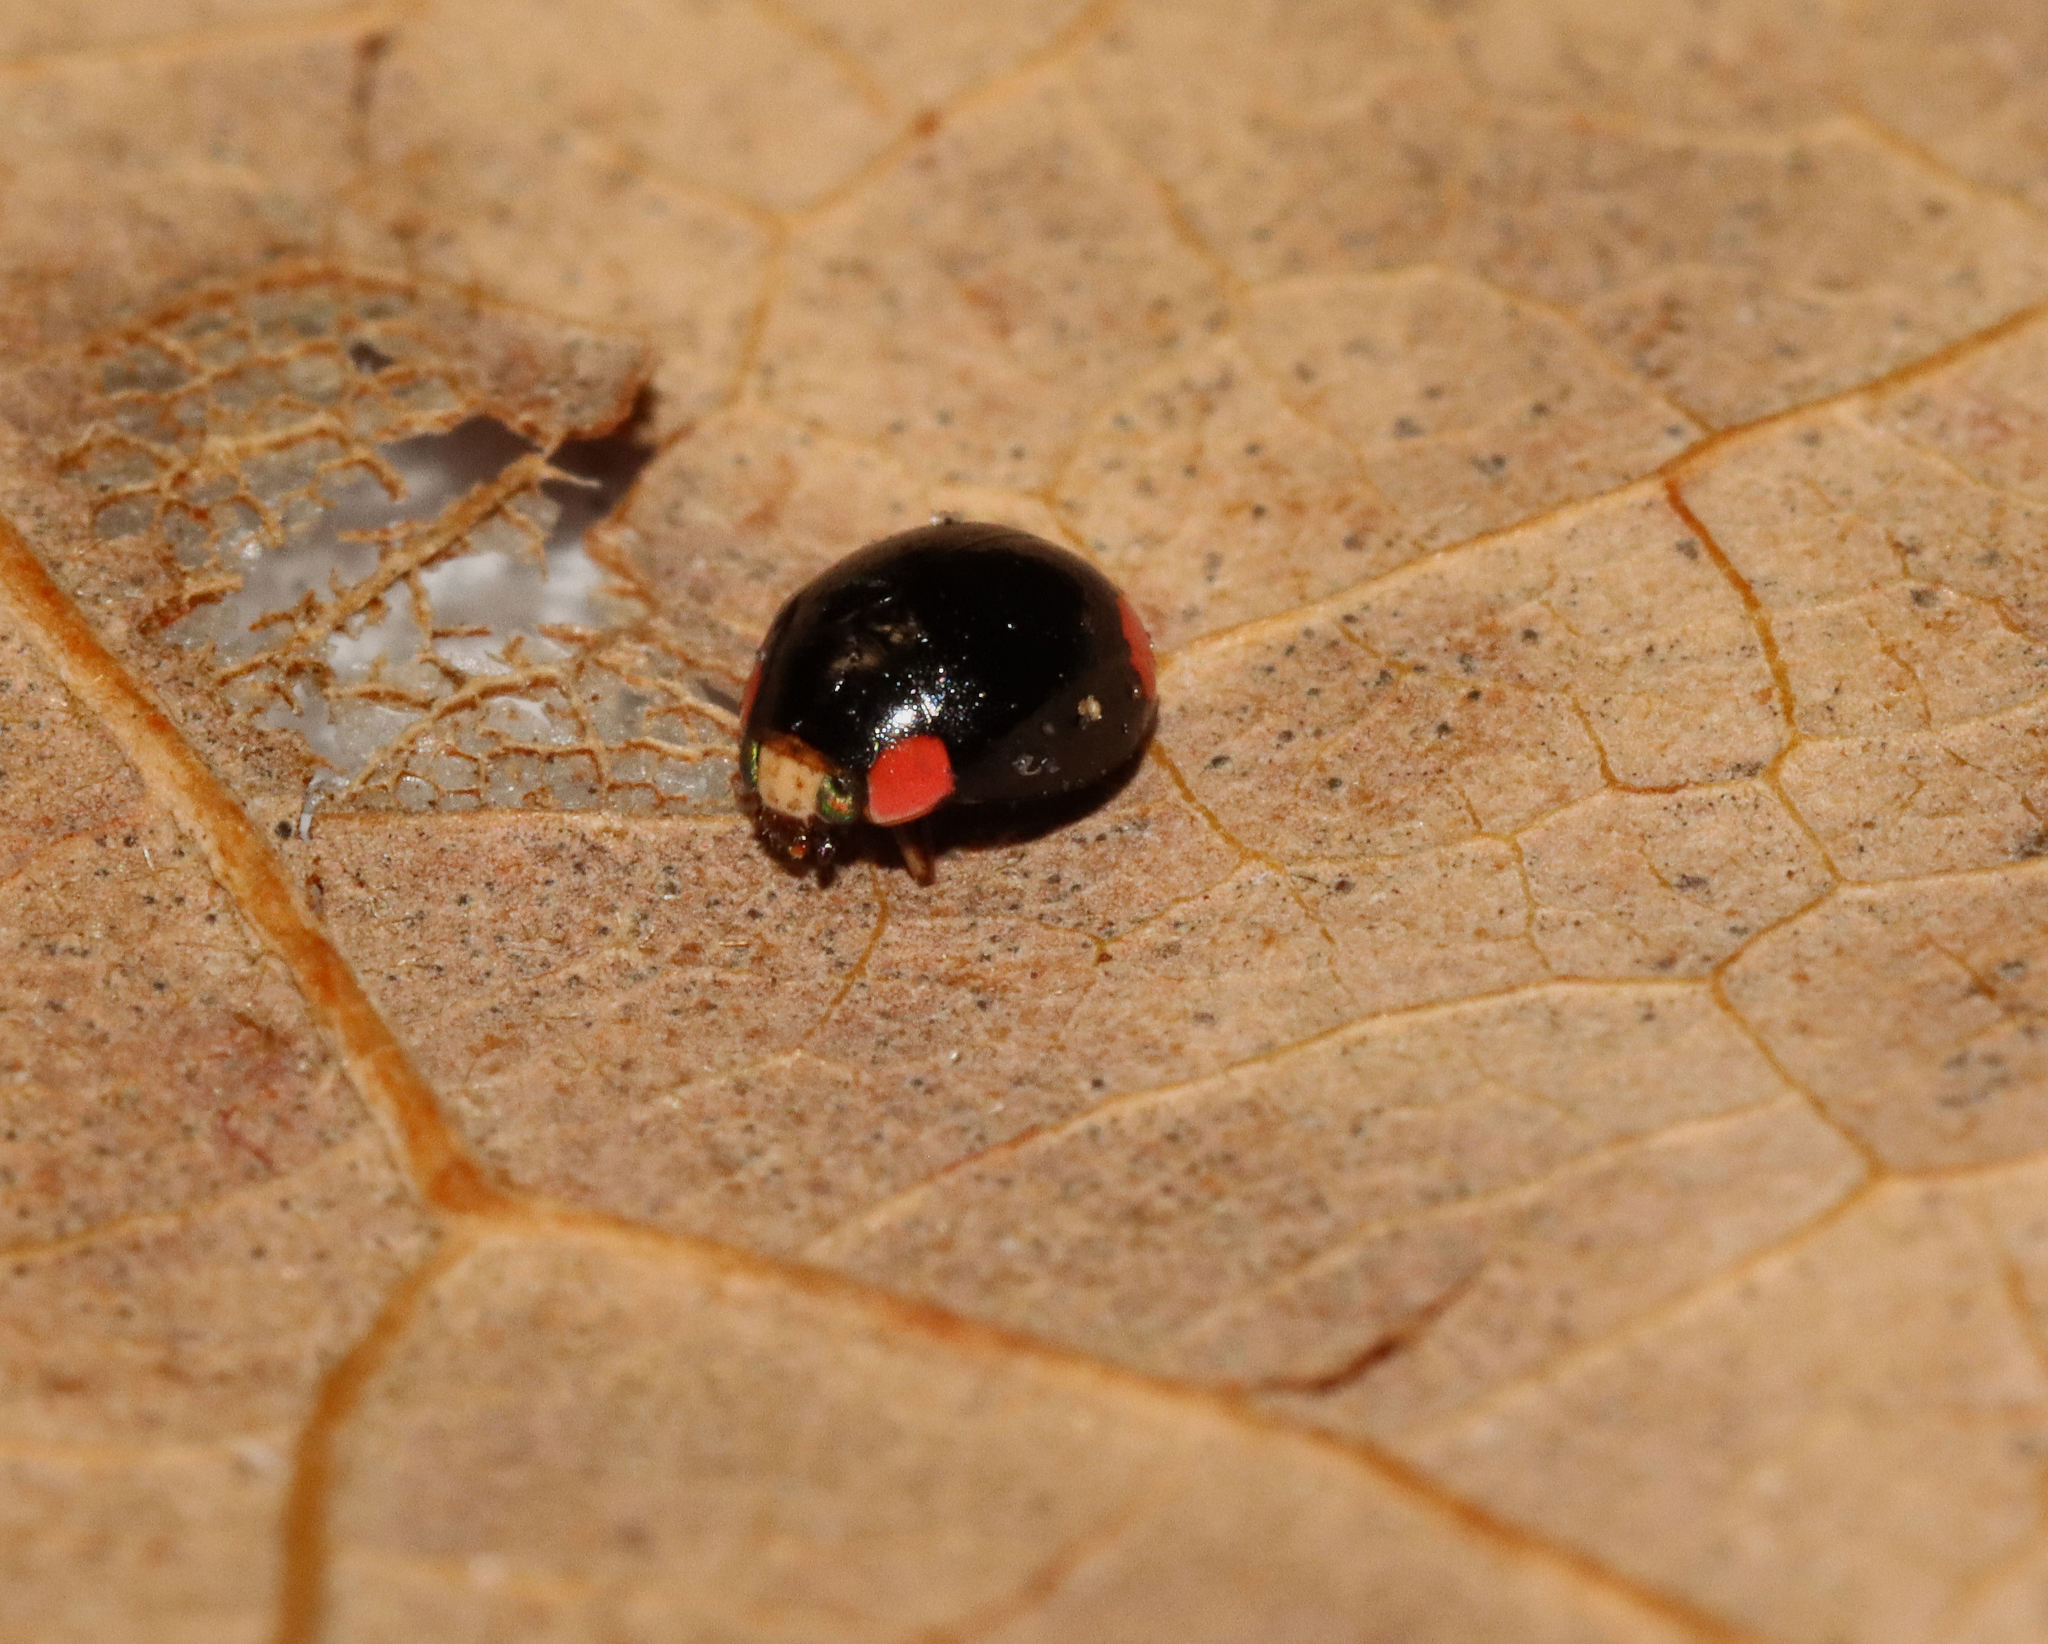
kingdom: Animalia
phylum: Arthropoda
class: Insecta
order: Coleoptera
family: Coccinellidae
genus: Hyperaspis
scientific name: Hyperaspis bigeminata
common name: Bigeminate sigil lady beetle
